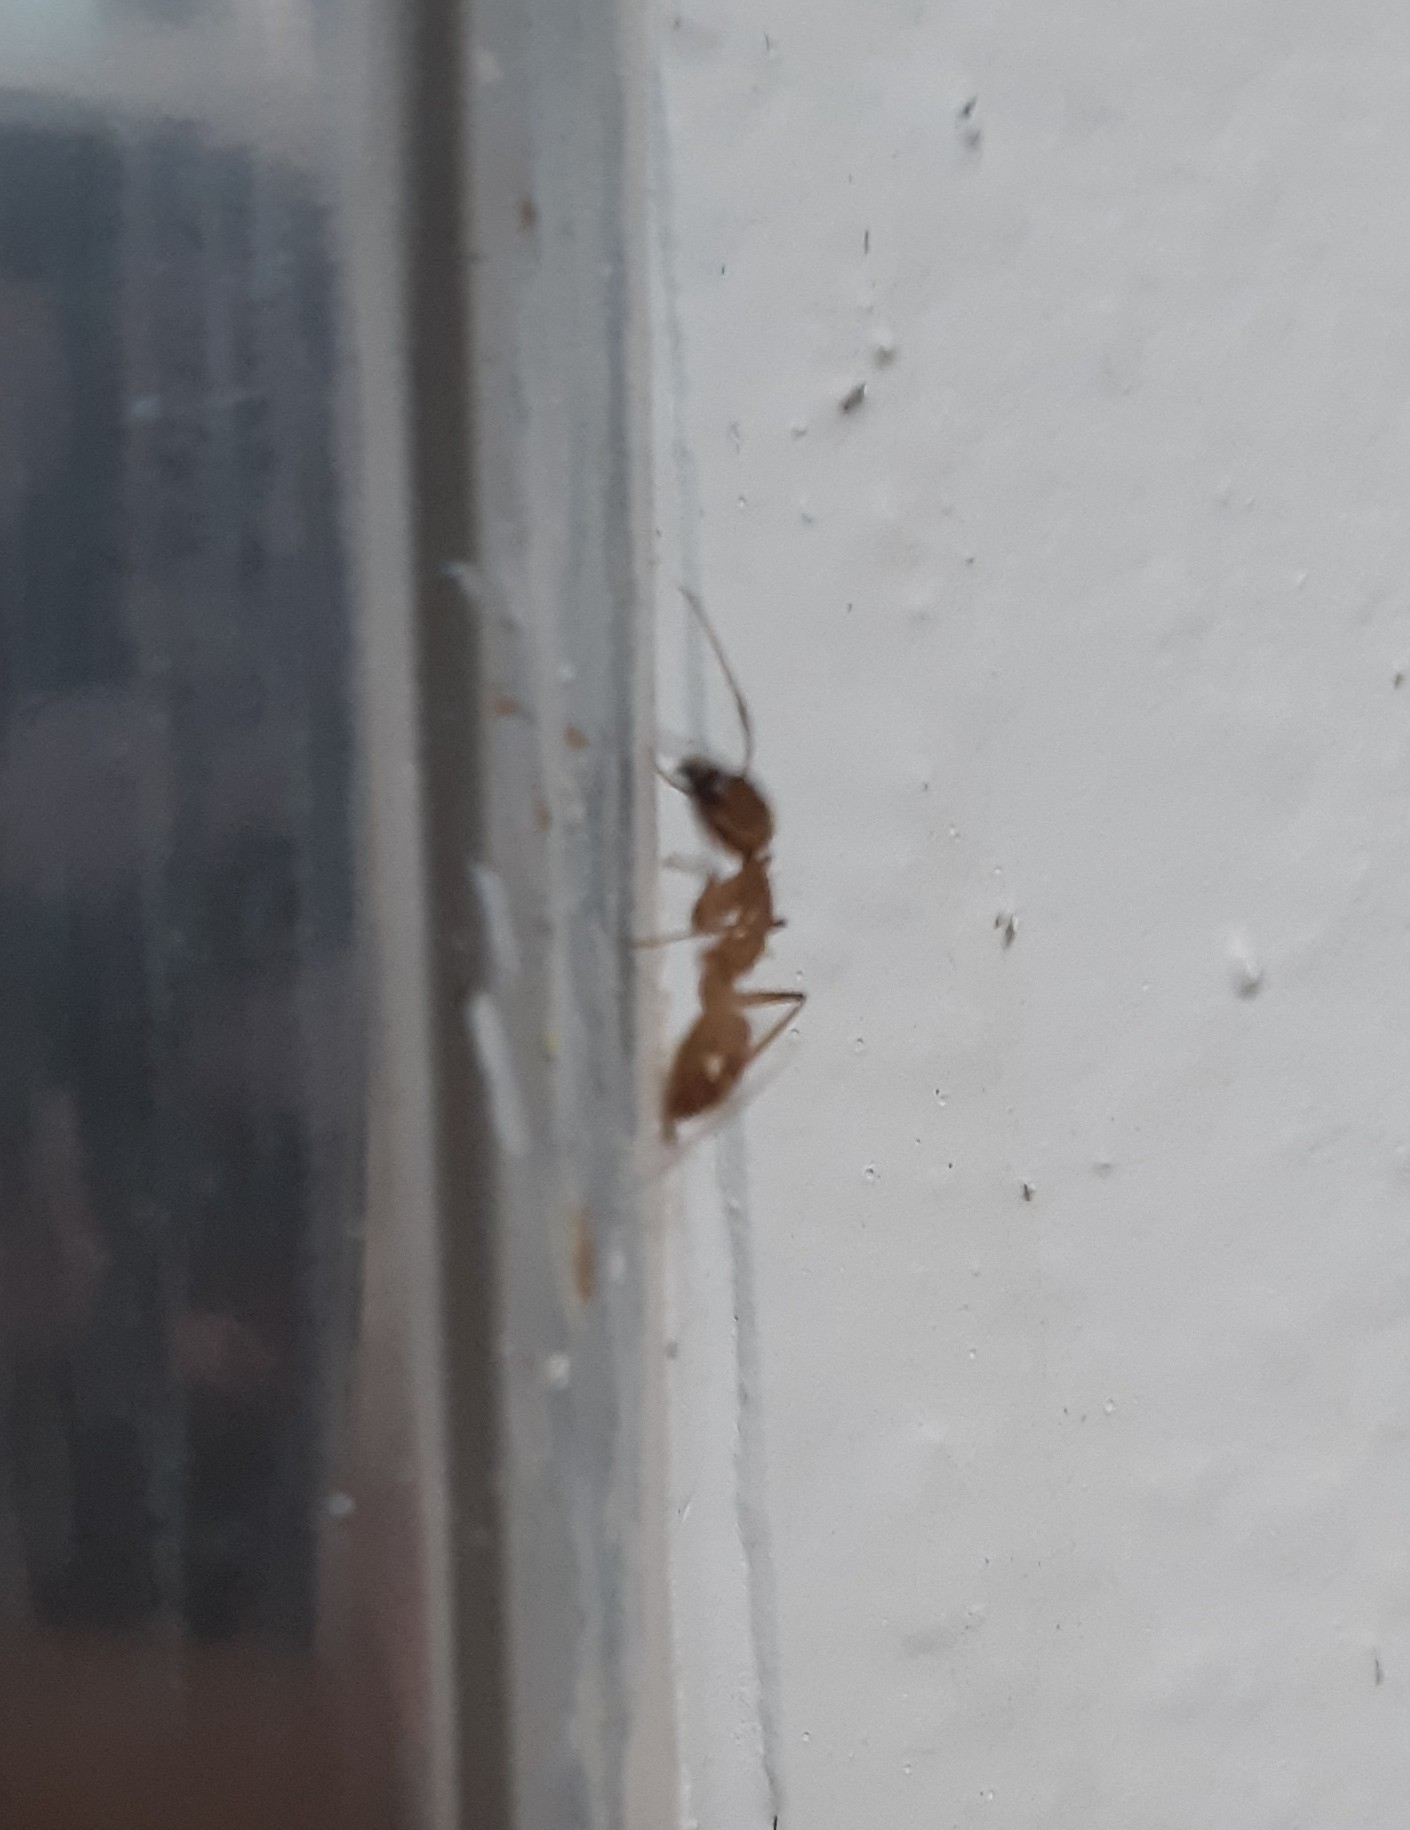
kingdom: Animalia
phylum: Arthropoda
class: Insecta
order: Hymenoptera
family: Formicidae
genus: Camponotus
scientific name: Camponotus festinatus
